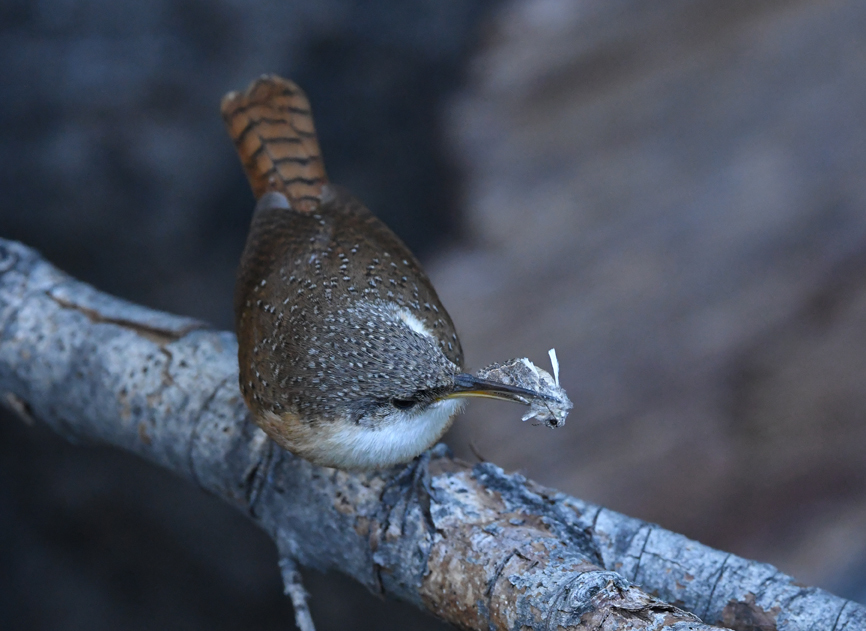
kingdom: Animalia
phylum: Chordata
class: Aves
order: Passeriformes
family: Troglodytidae
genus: Catherpes
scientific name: Catherpes mexicanus
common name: Canyon wren
